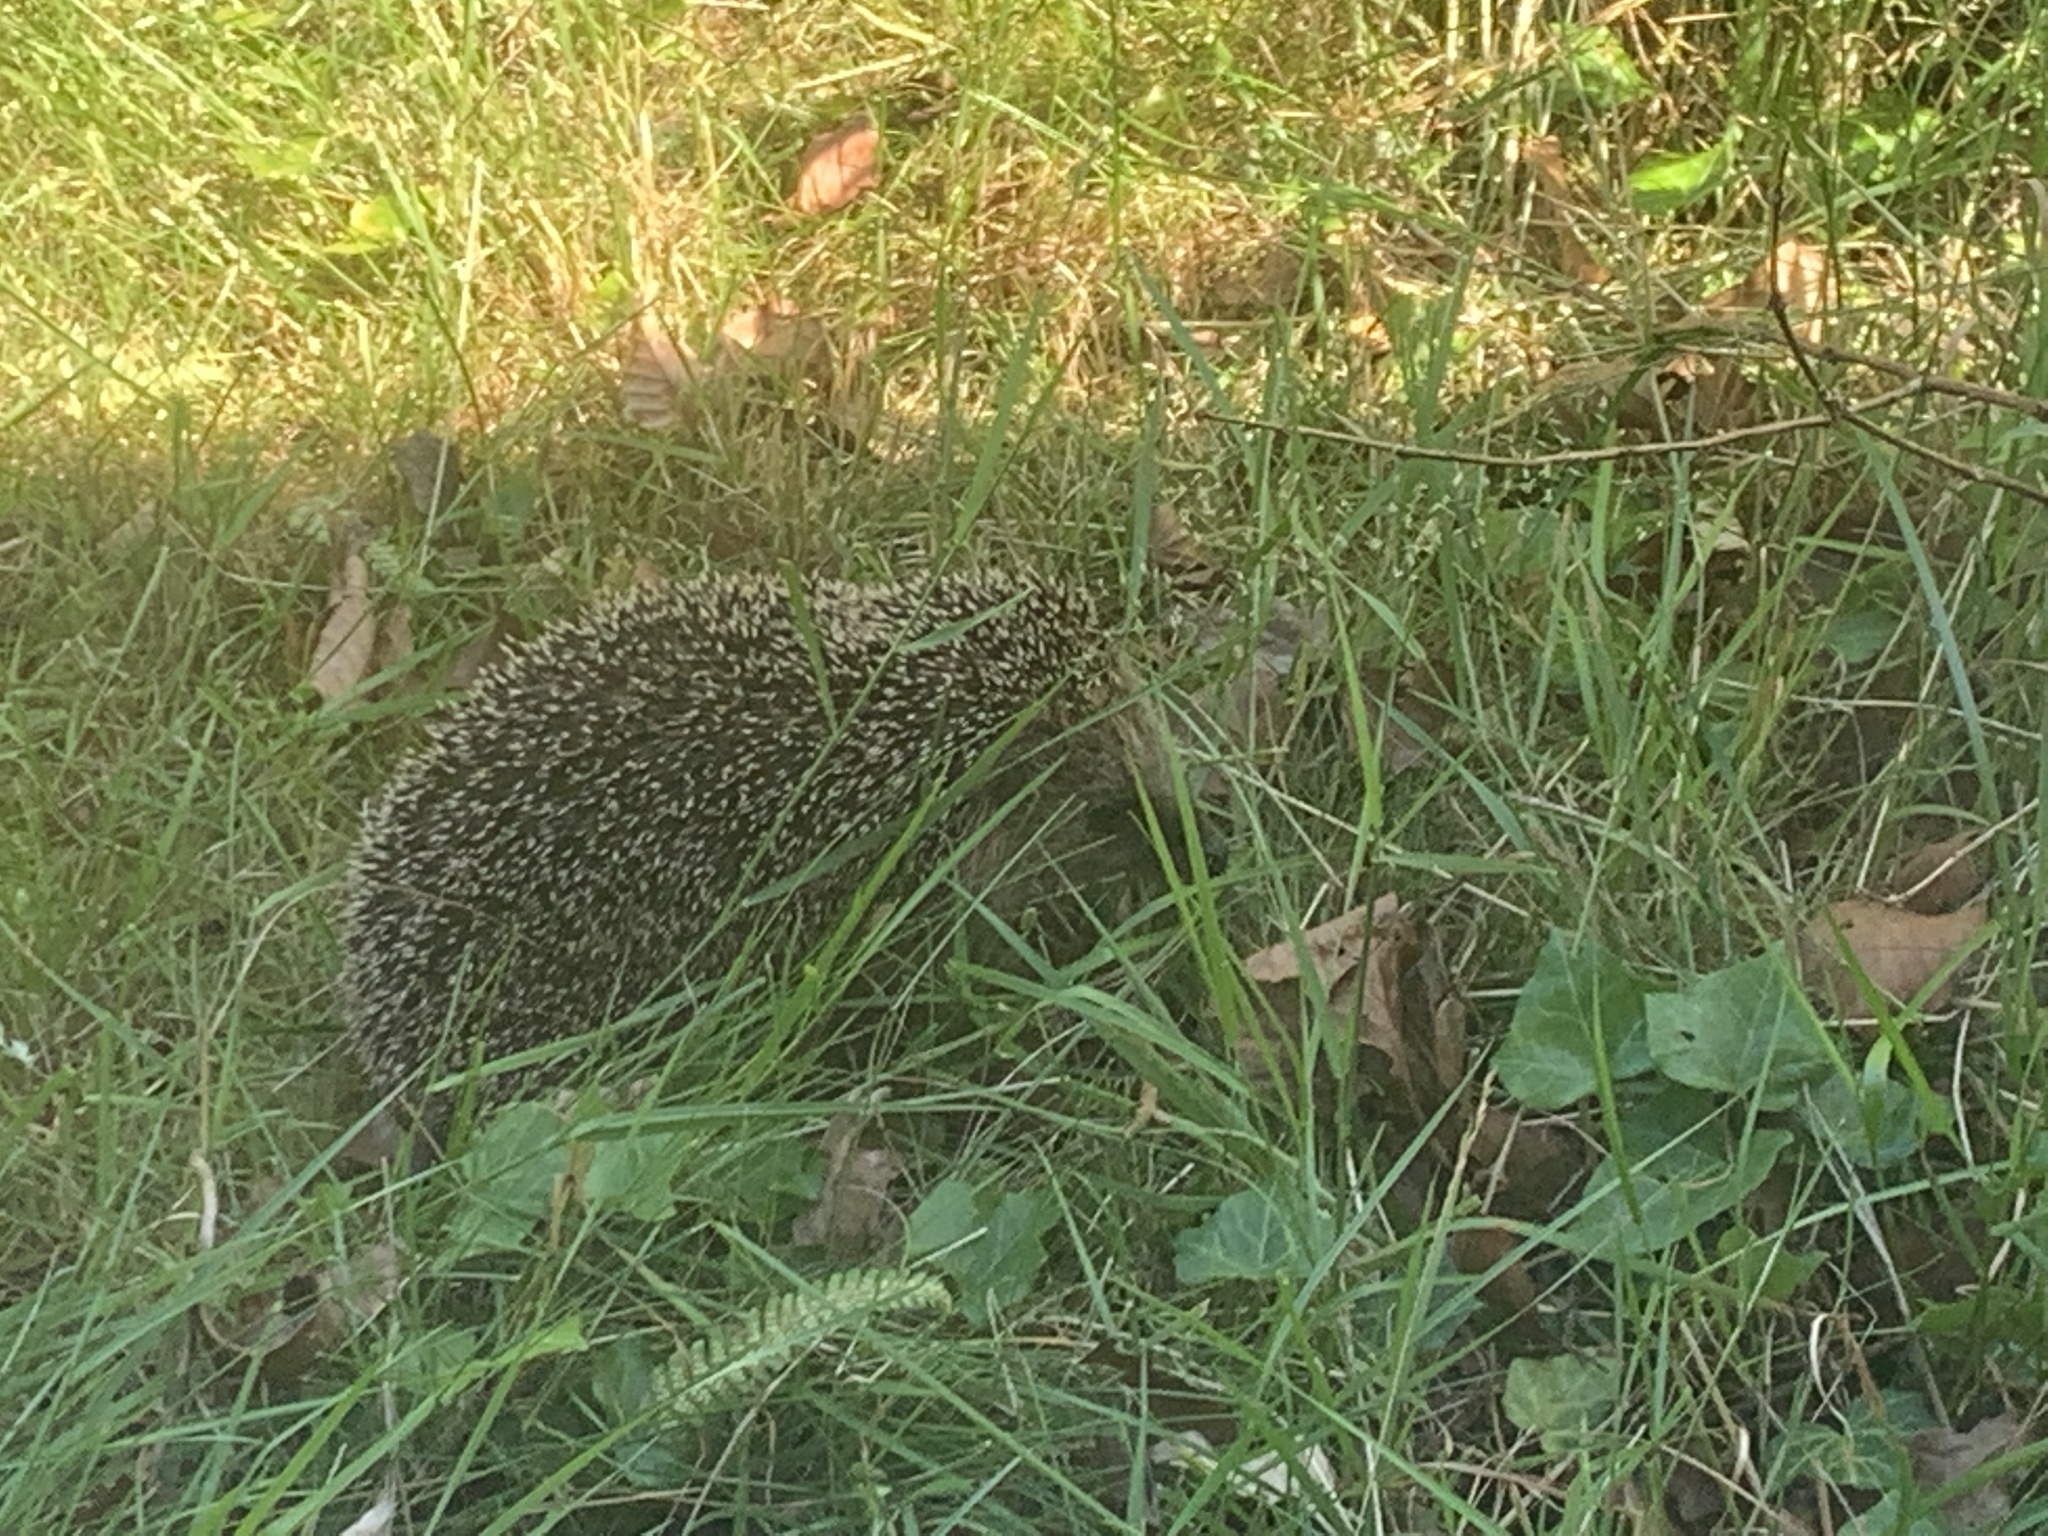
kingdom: Animalia
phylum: Chordata
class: Mammalia
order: Erinaceomorpha
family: Erinaceidae
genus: Erinaceus
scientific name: Erinaceus europaeus
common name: West european hedgehog
